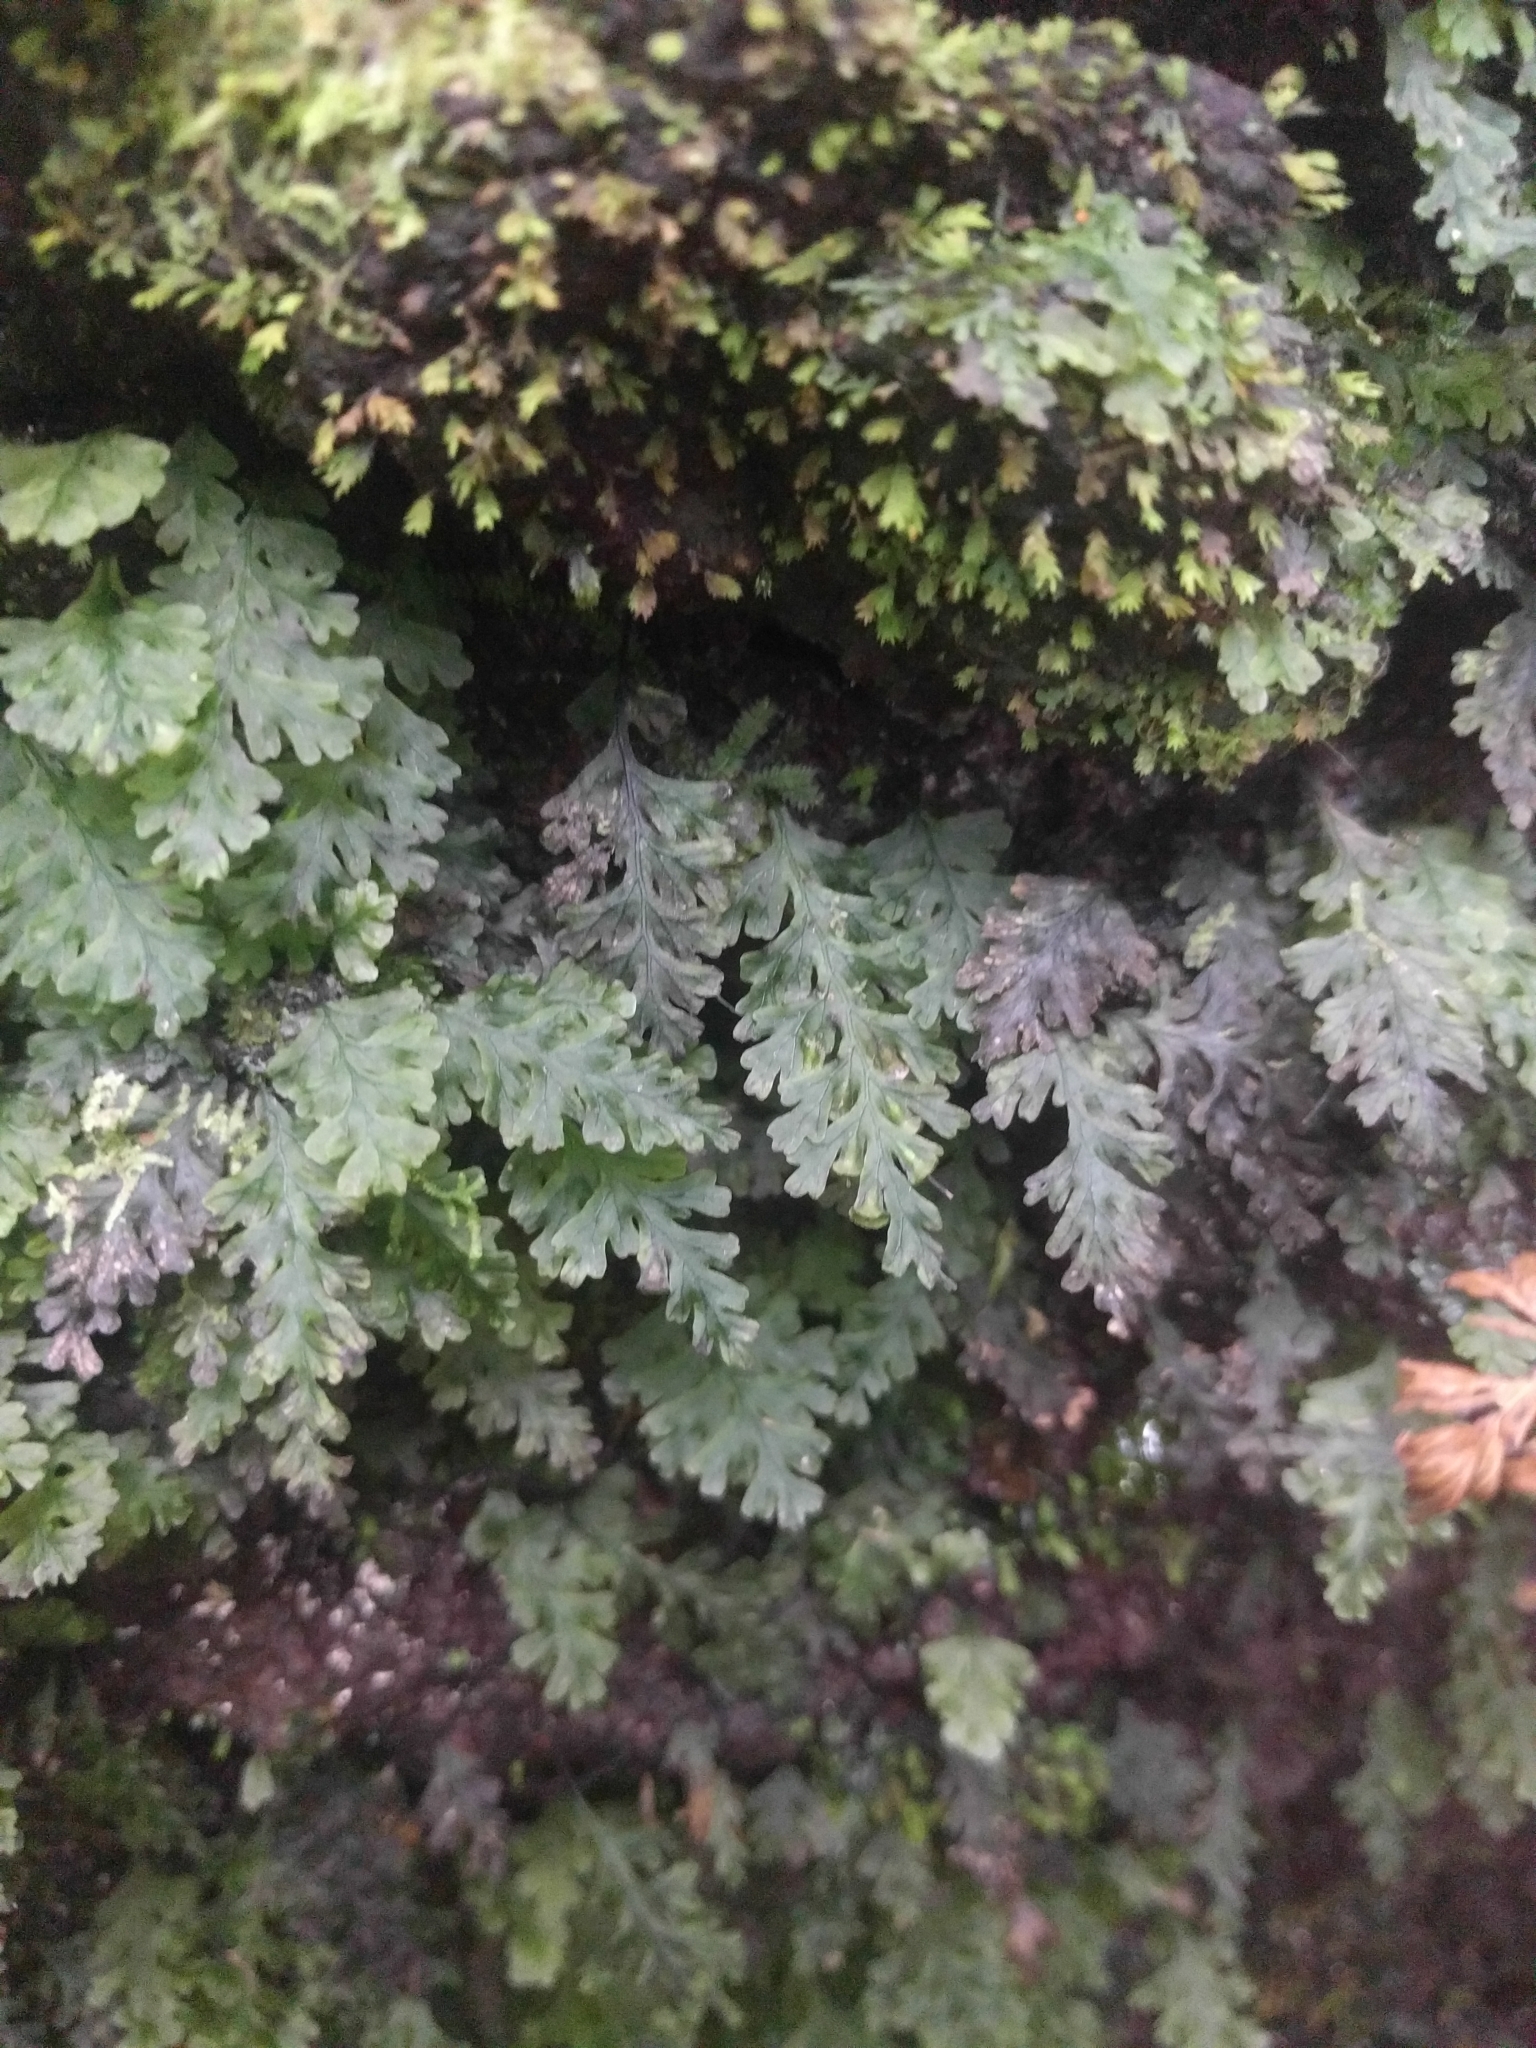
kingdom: Plantae
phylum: Tracheophyta
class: Polypodiopsida
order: Hymenophyllales
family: Hymenophyllaceae
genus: Crepidomanes
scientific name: Crepidomanes draytonianum
